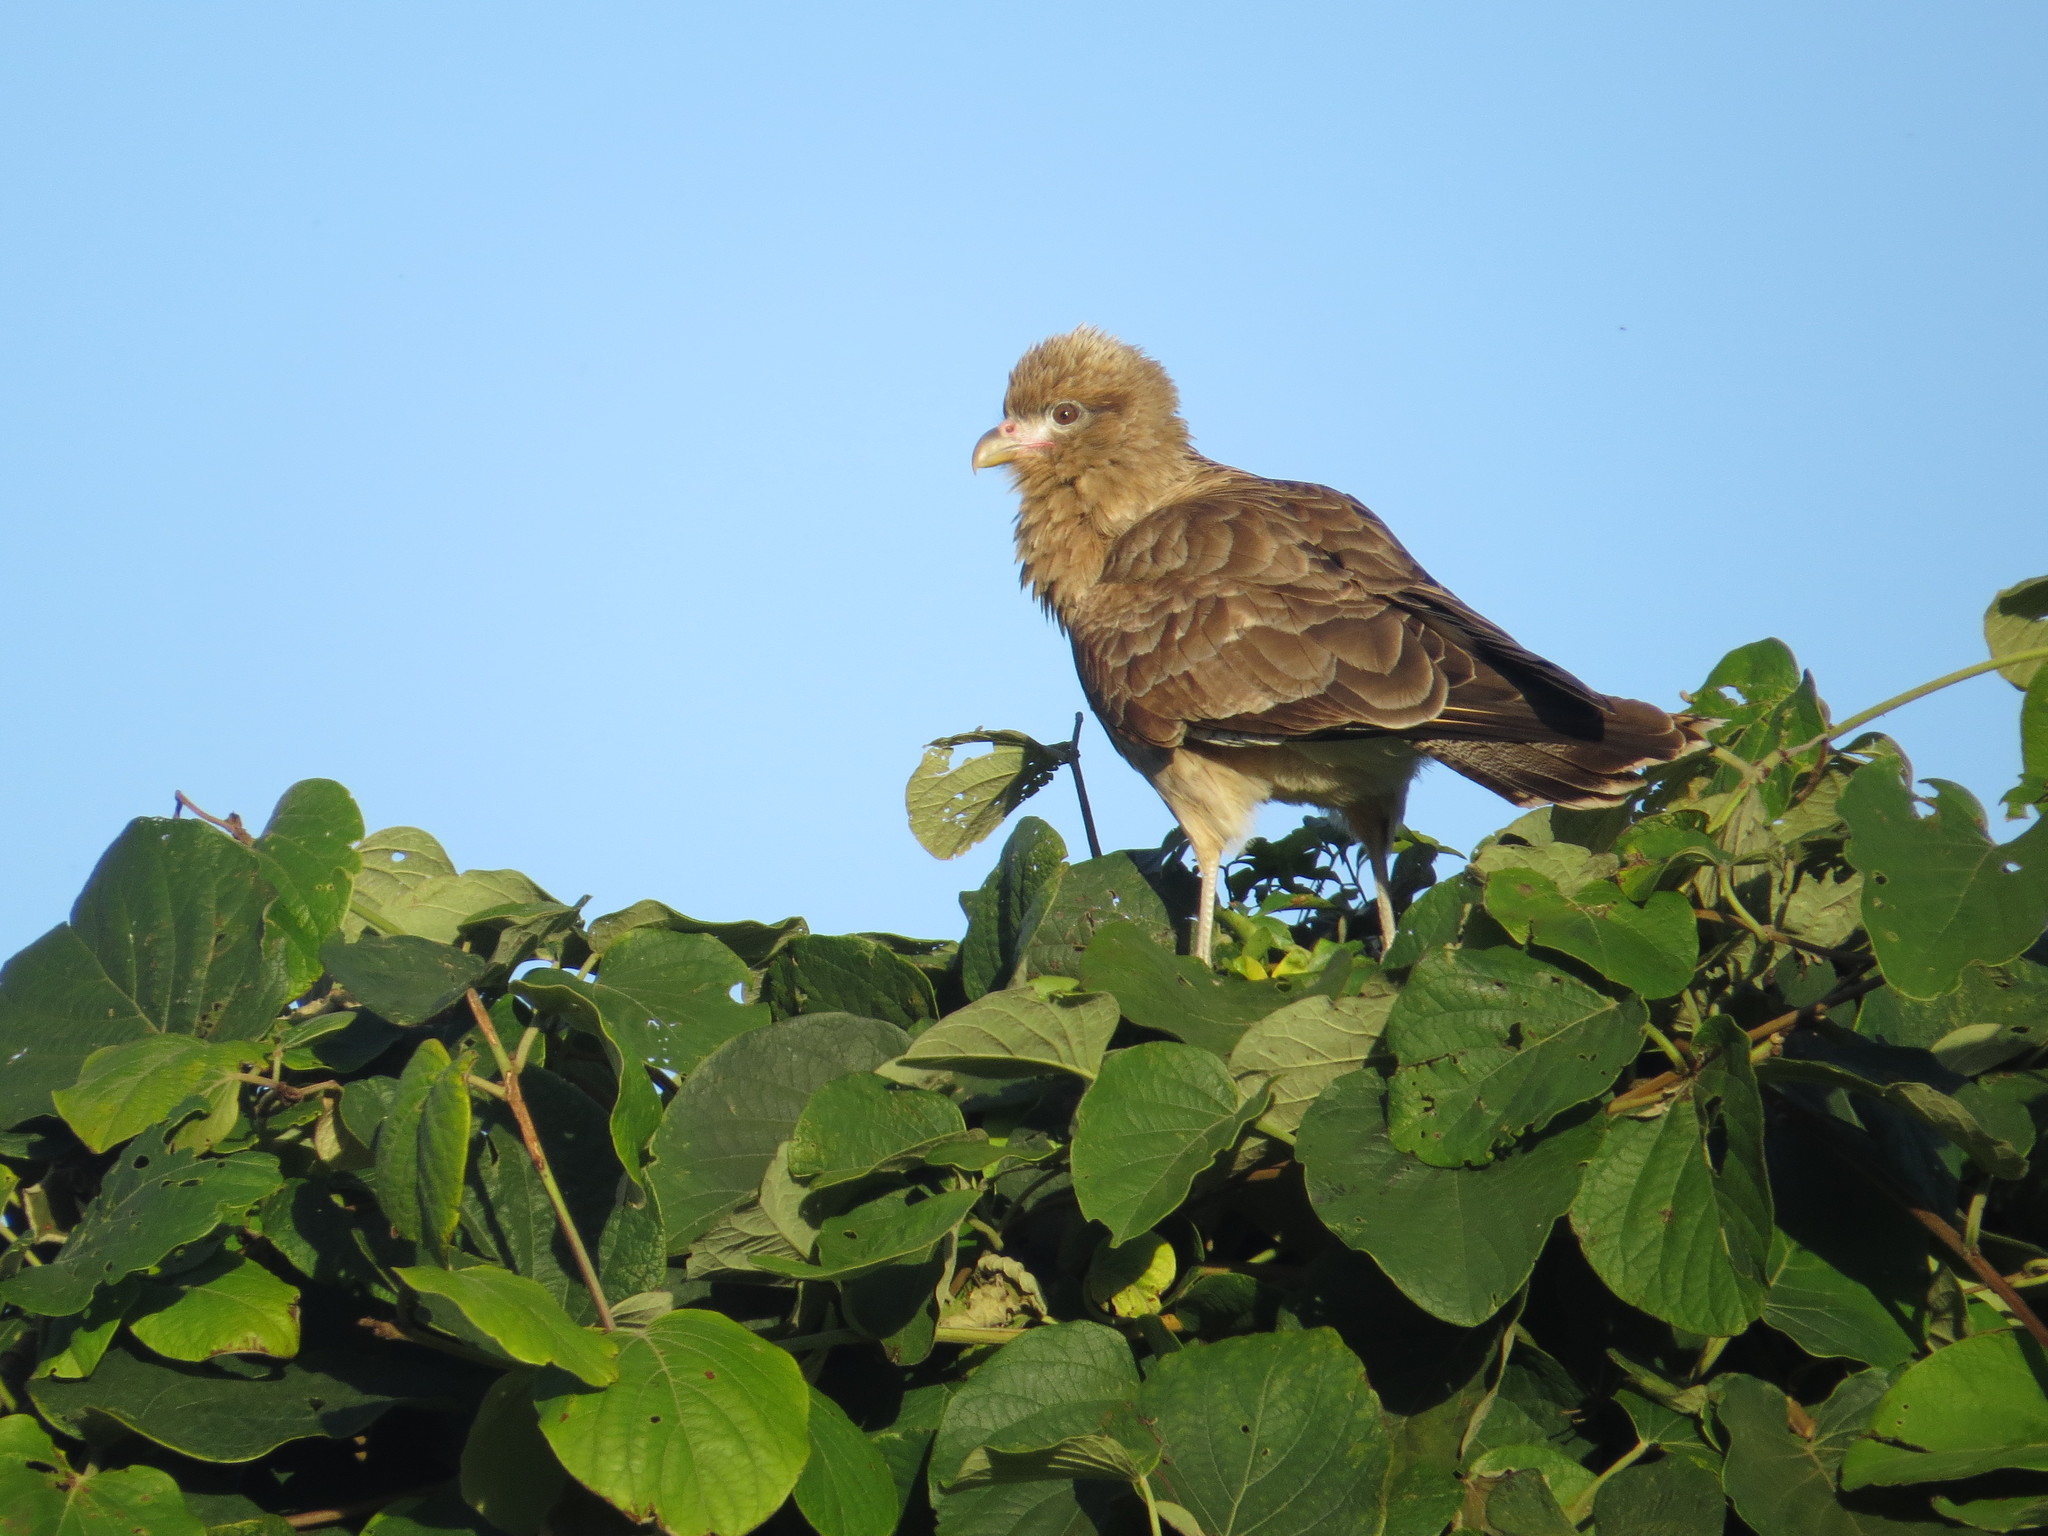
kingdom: Animalia
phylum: Chordata
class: Aves
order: Falconiformes
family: Falconidae
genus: Daptrius
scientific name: Daptrius
